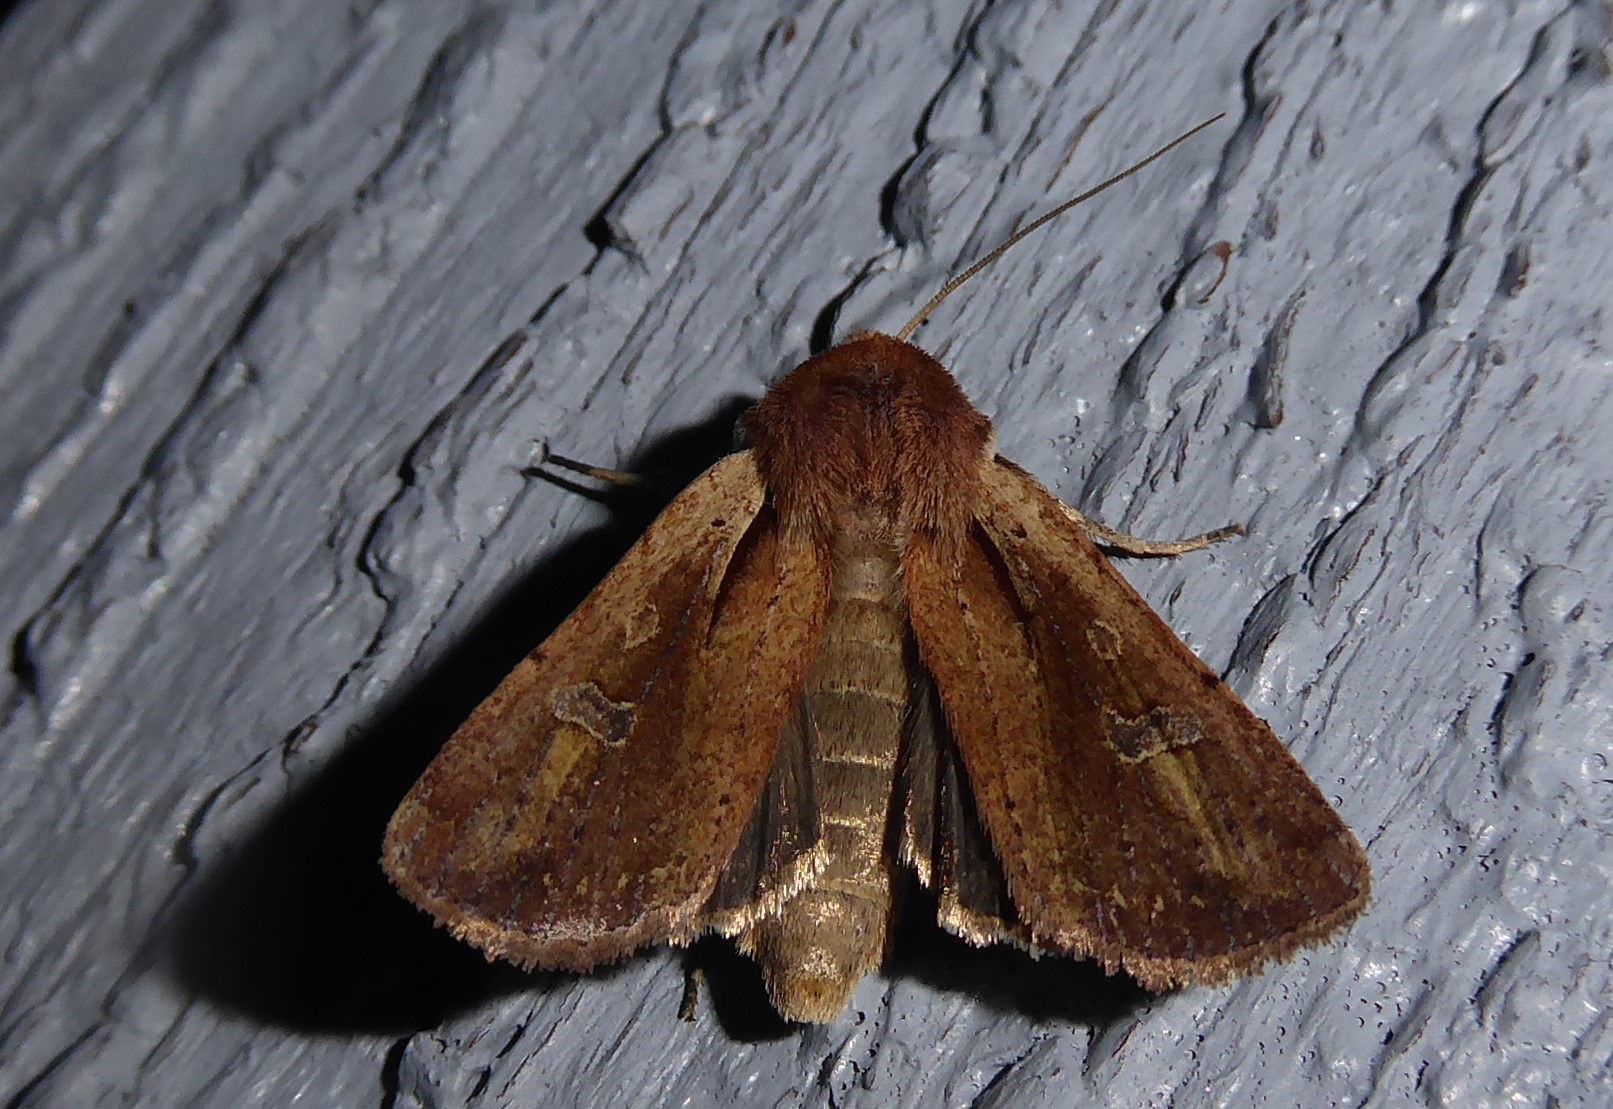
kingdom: Animalia
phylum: Arthropoda
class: Insecta
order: Lepidoptera
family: Noctuidae
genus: Ichneutica
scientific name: Ichneutica atristriga
